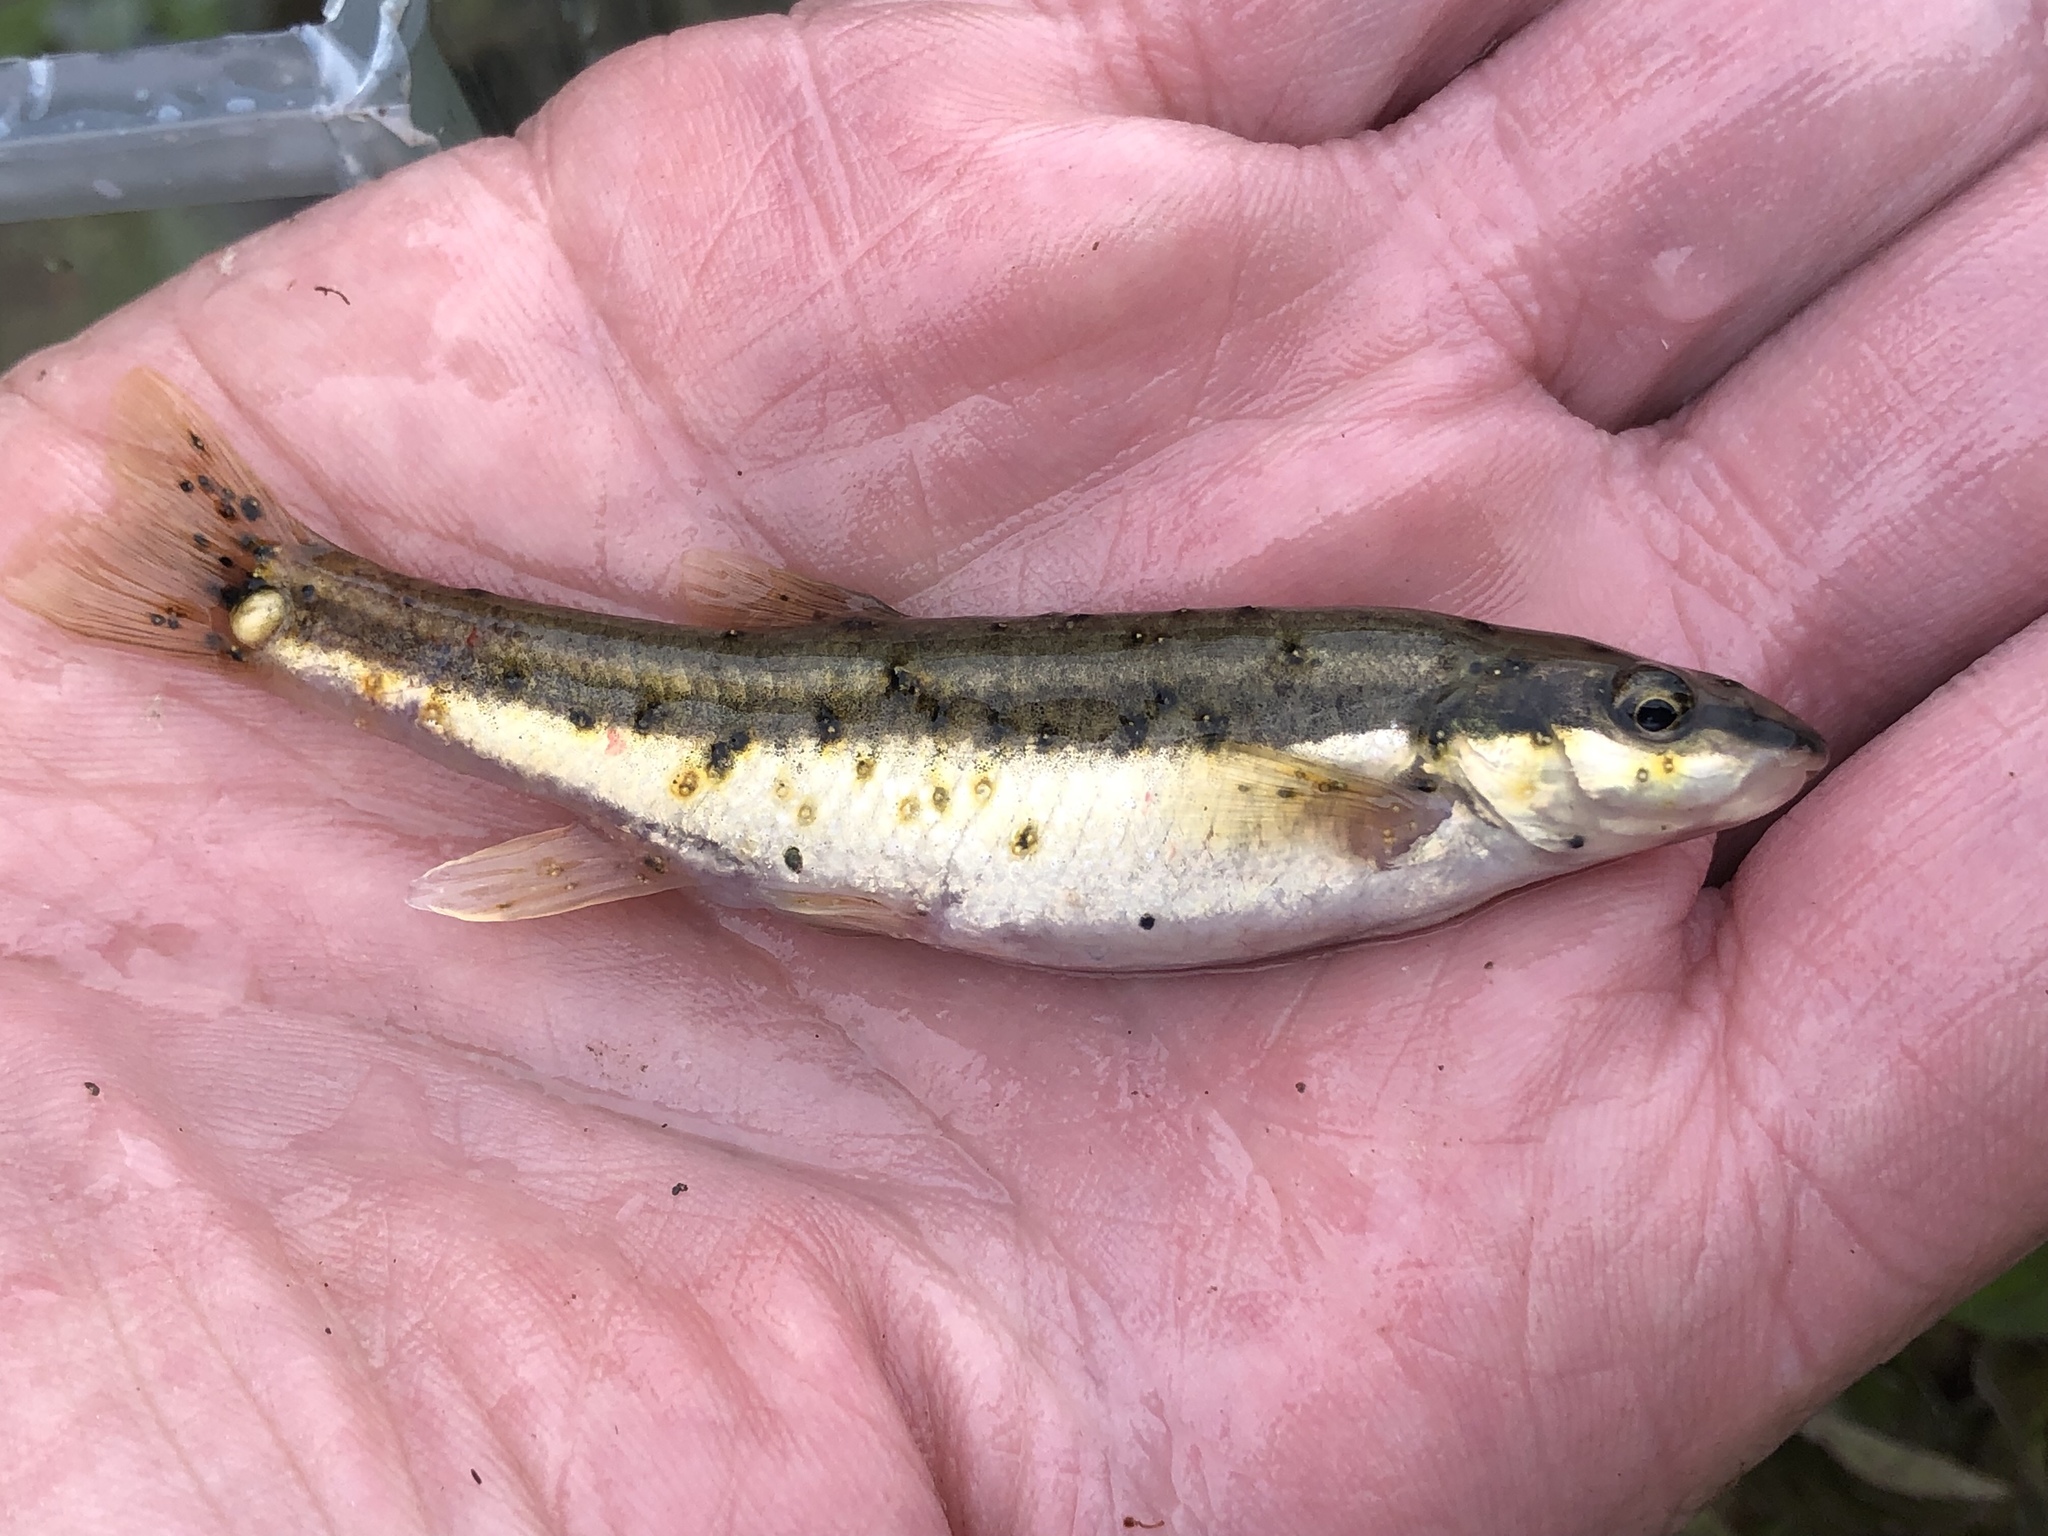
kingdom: Animalia
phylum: Chordata
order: Cypriniformes
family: Cyprinidae
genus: Rhinichthys
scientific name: Rhinichthys atratulus
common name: Eastern blacknose dace
